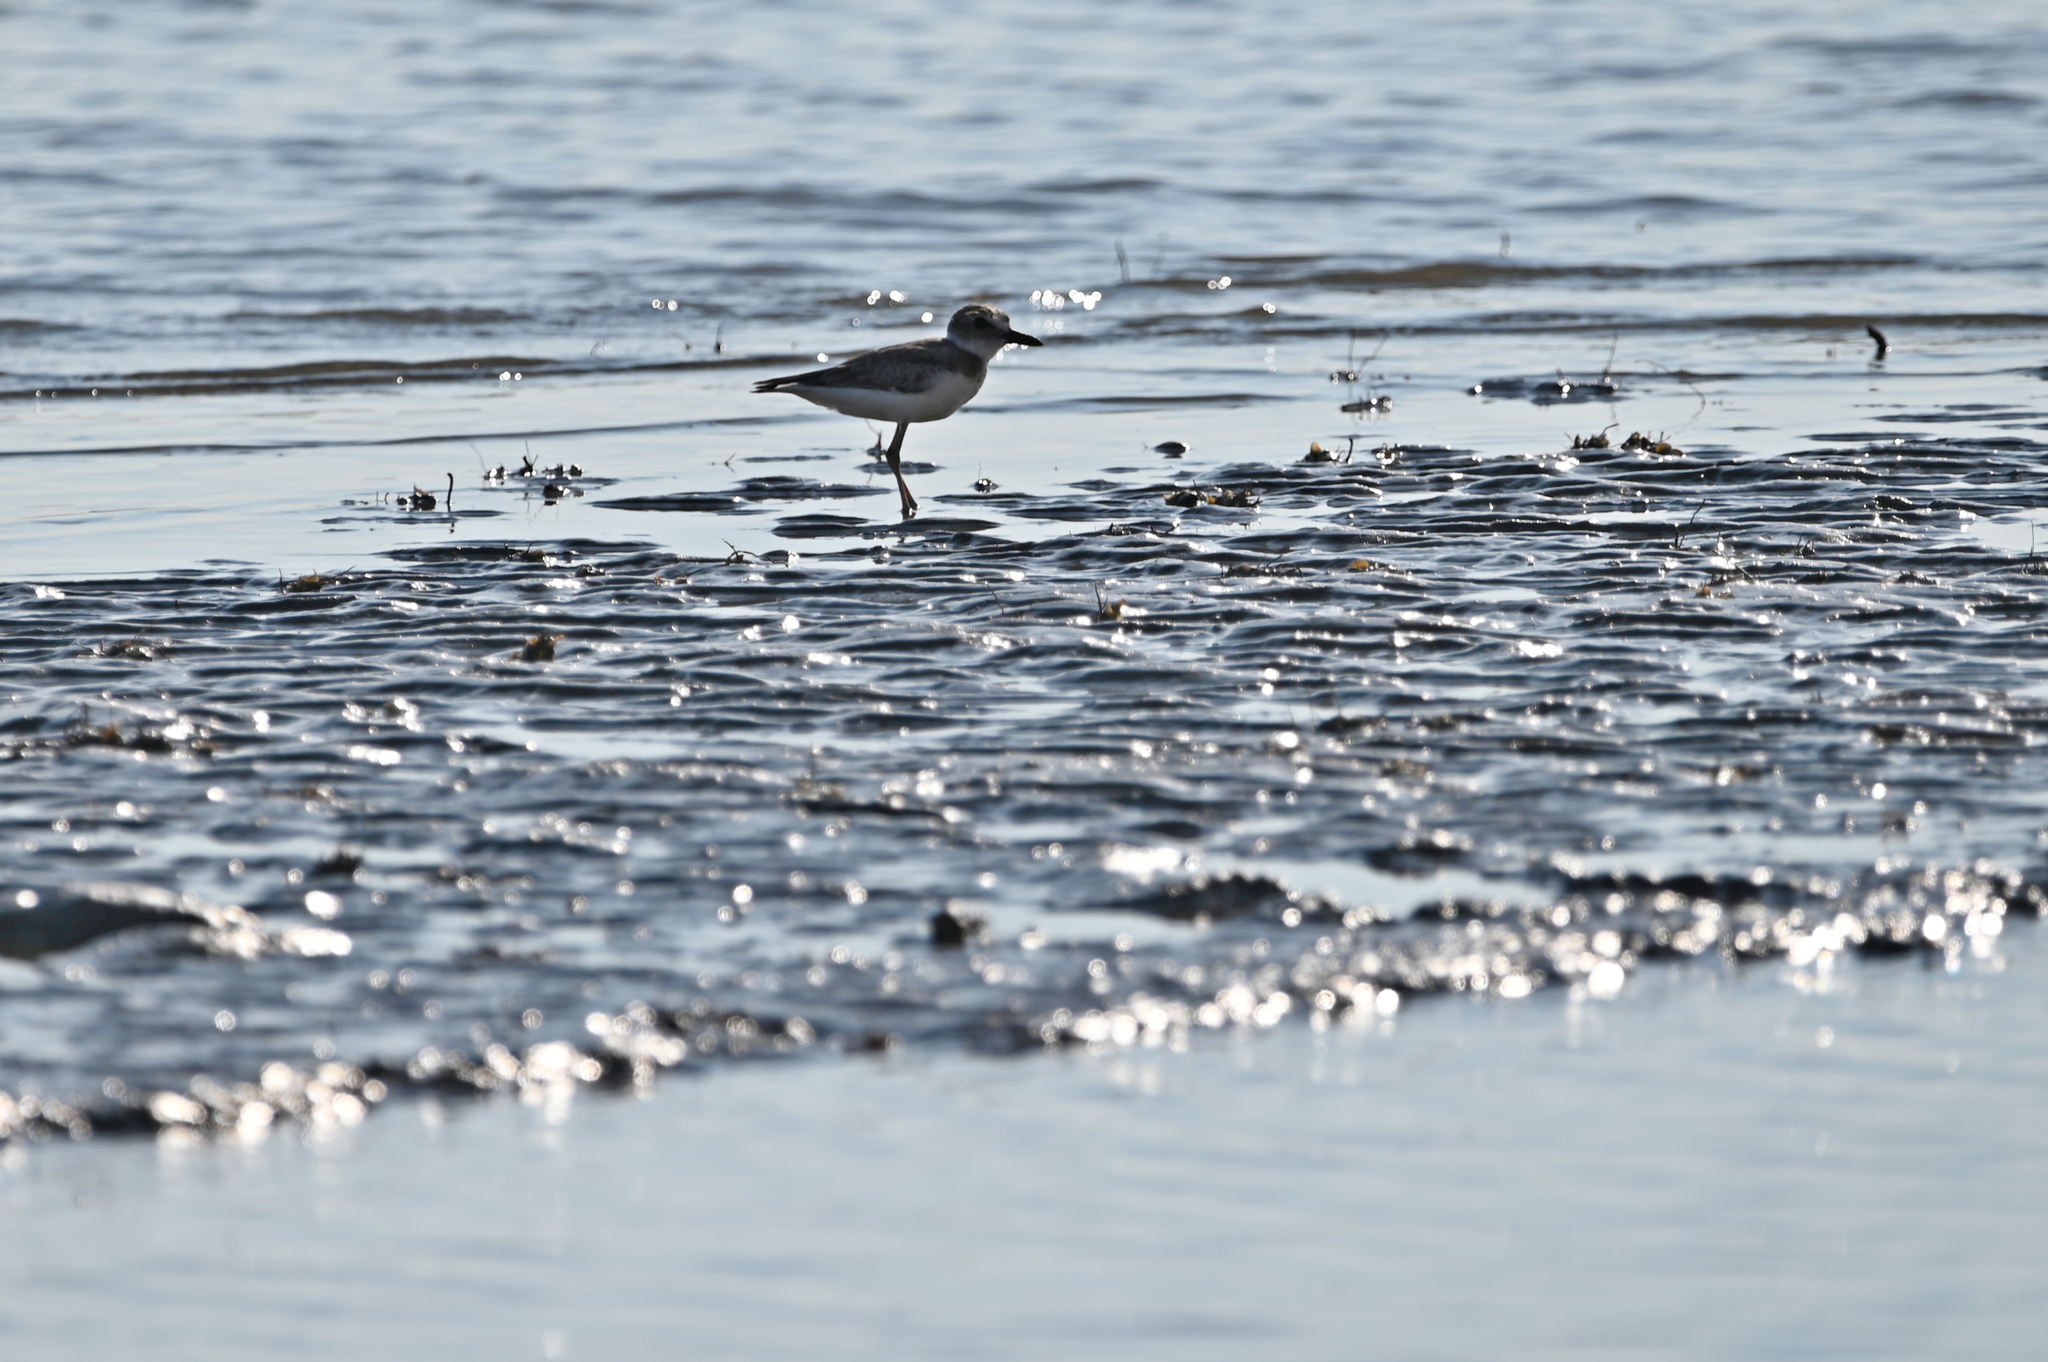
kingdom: Animalia
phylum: Chordata
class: Aves
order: Charadriiformes
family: Charadriidae
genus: Anarhynchus
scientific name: Anarhynchus
